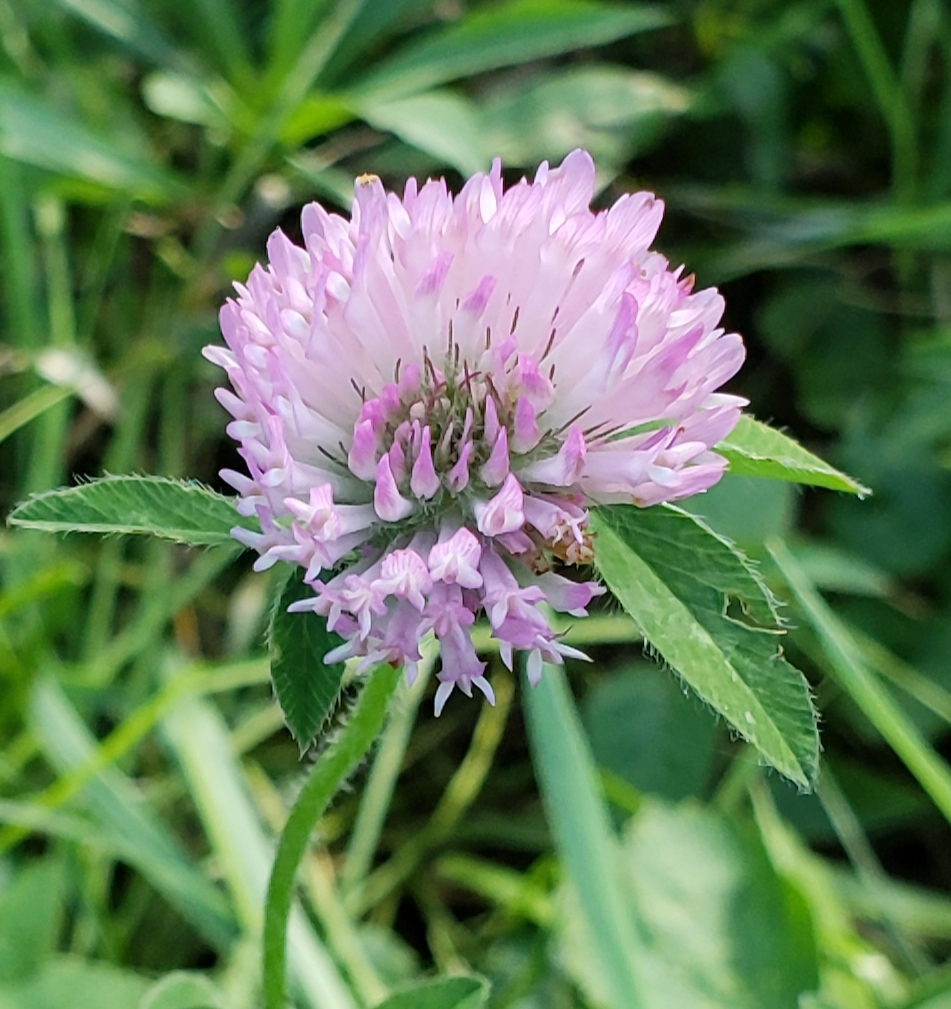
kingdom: Plantae
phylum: Tracheophyta
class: Magnoliopsida
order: Fabales
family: Fabaceae
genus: Trifolium
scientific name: Trifolium pratense
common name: Red clover
